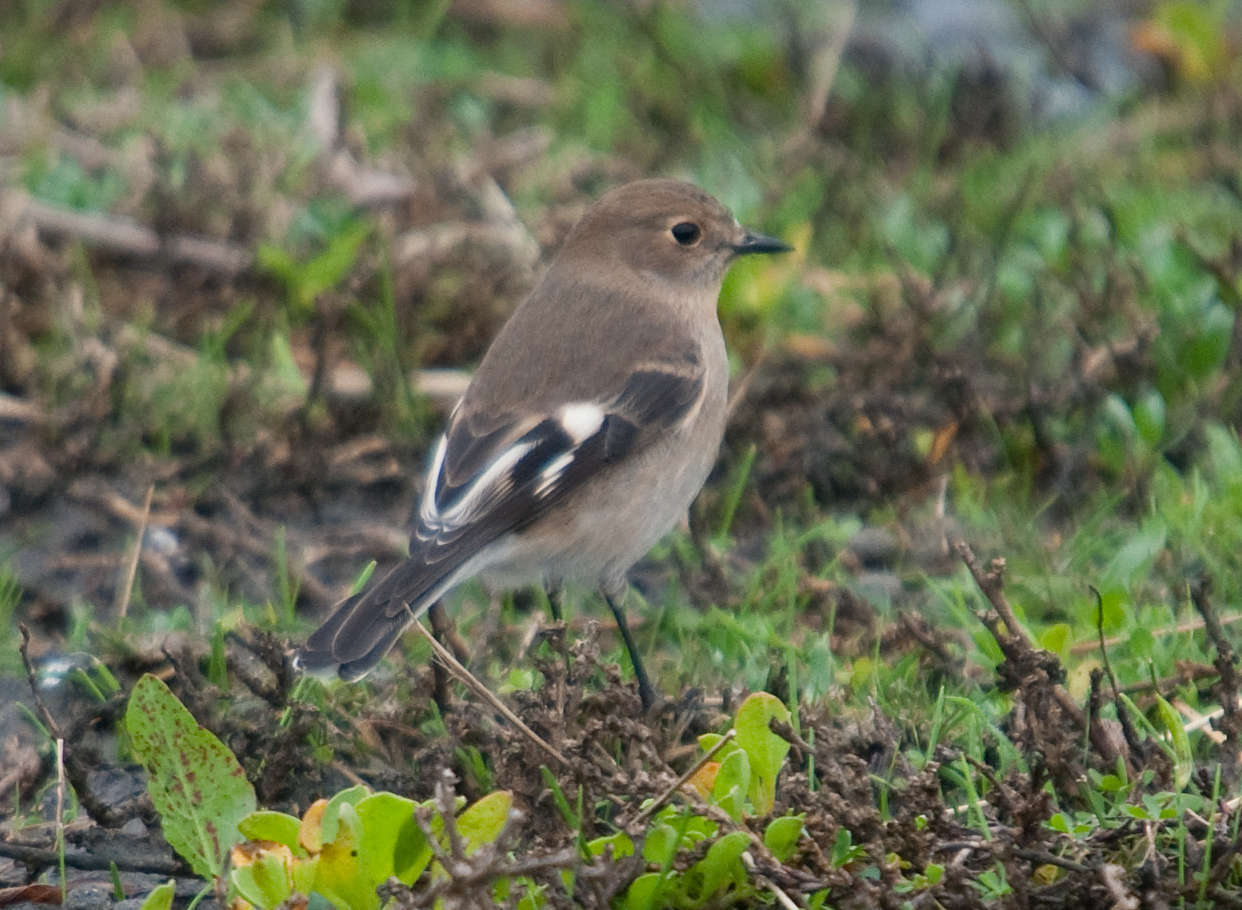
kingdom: Animalia
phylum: Chordata
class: Aves
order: Passeriformes
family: Petroicidae
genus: Petroica
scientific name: Petroica phoenicea
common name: Flame robin
